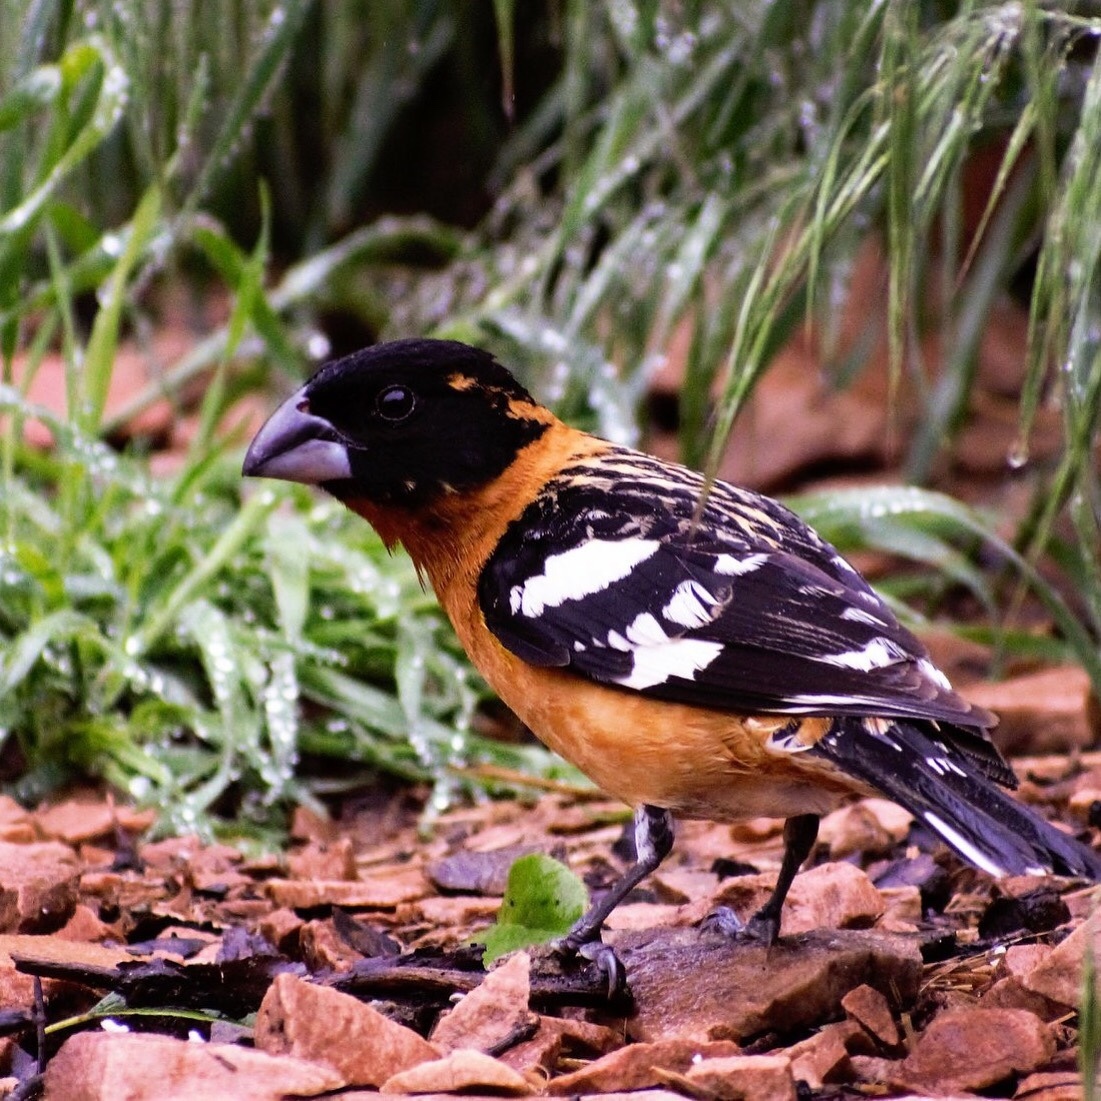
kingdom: Animalia
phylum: Chordata
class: Aves
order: Passeriformes
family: Cardinalidae
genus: Pheucticus
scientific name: Pheucticus melanocephalus
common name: Black-headed grosbeak
